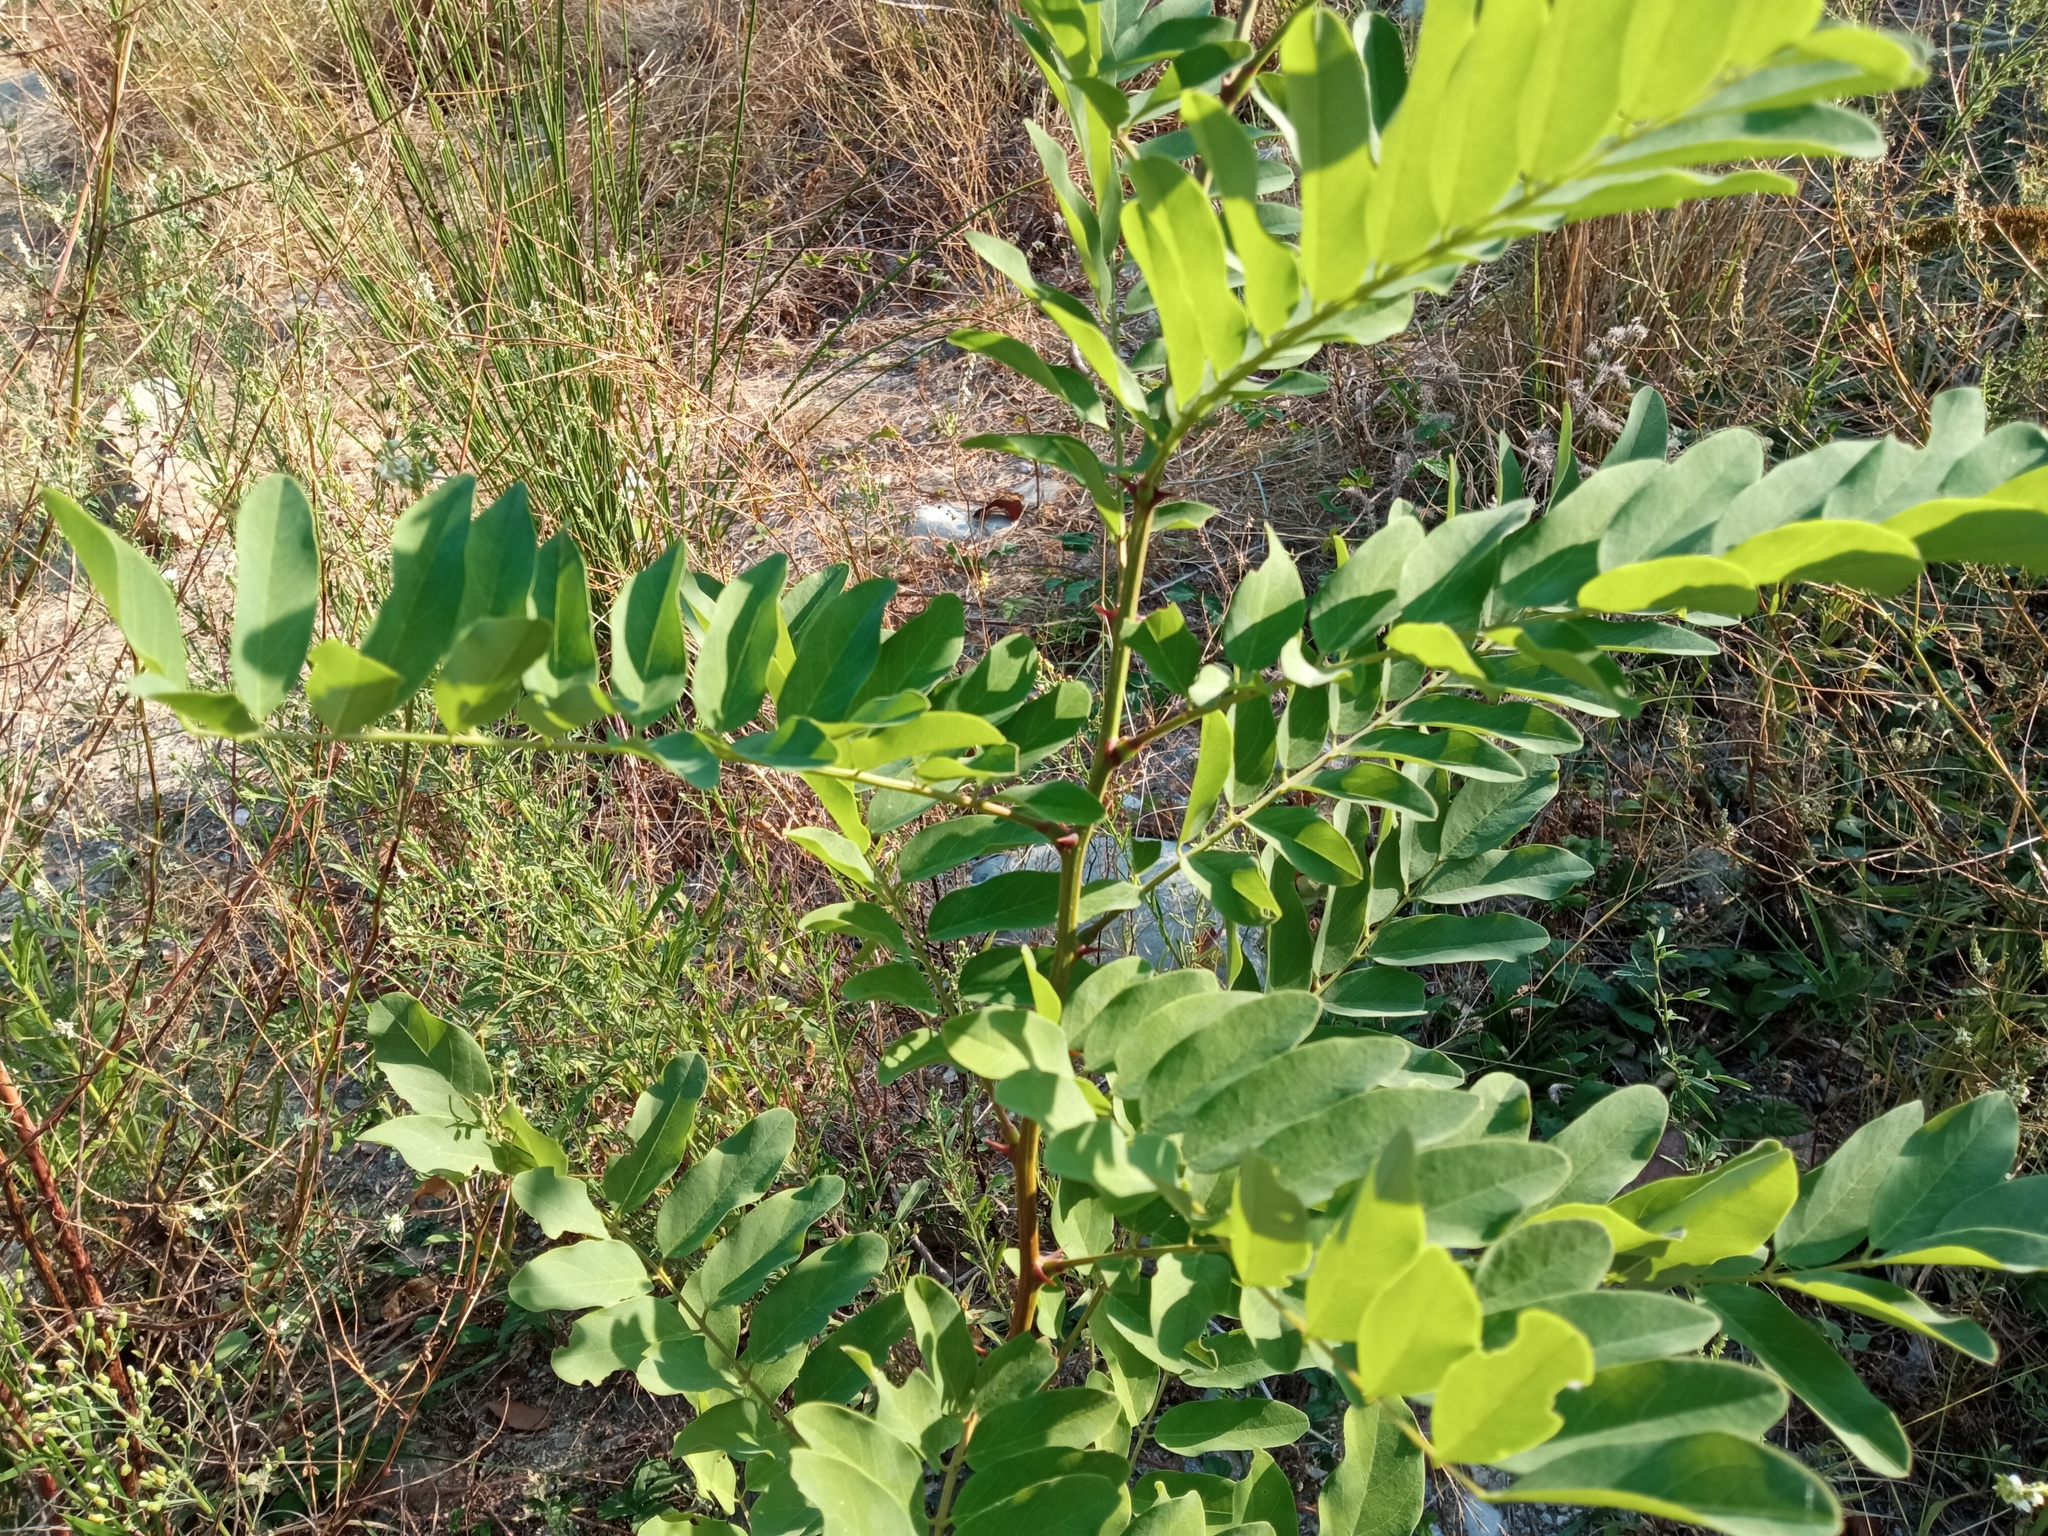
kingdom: Plantae
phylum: Tracheophyta
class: Magnoliopsida
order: Fabales
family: Fabaceae
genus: Robinia
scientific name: Robinia pseudoacacia
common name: Black locust
